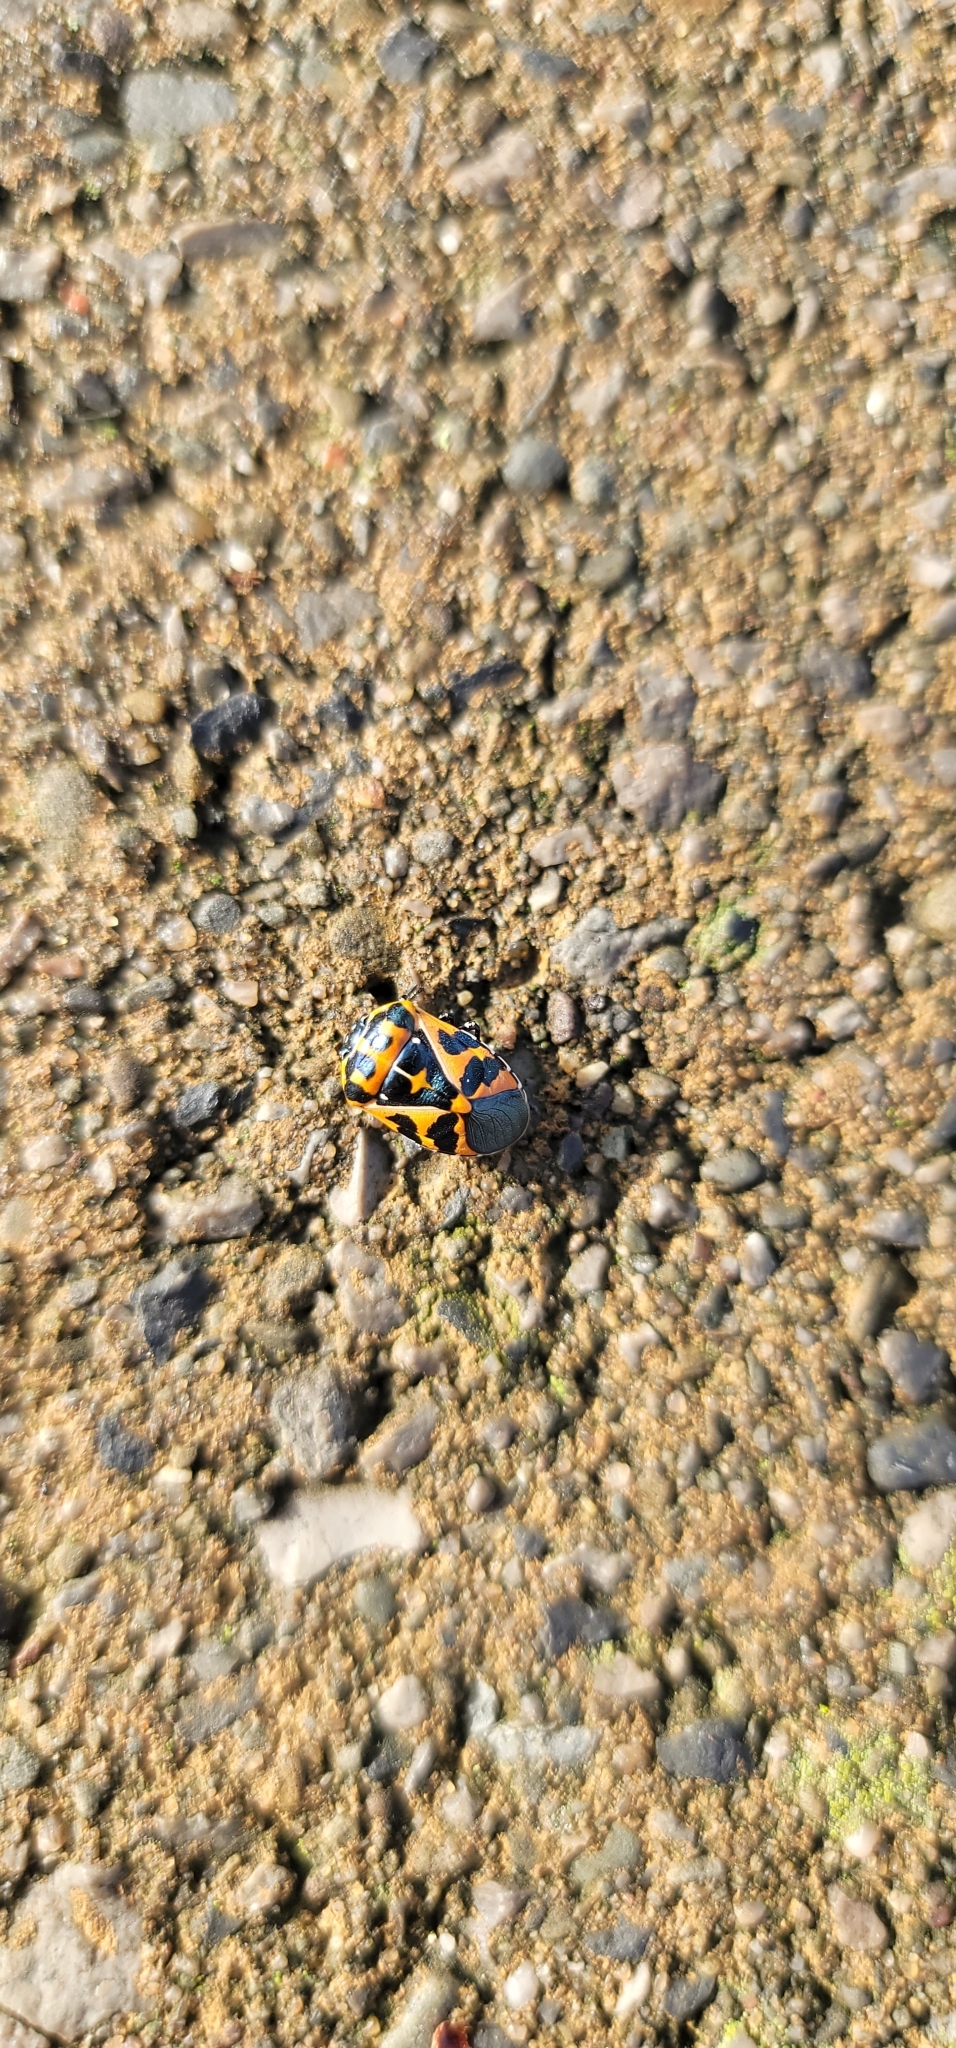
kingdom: Animalia
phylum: Arthropoda
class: Insecta
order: Hemiptera
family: Pentatomidae
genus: Murgantia
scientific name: Murgantia histrionica
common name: Harlequin bug
